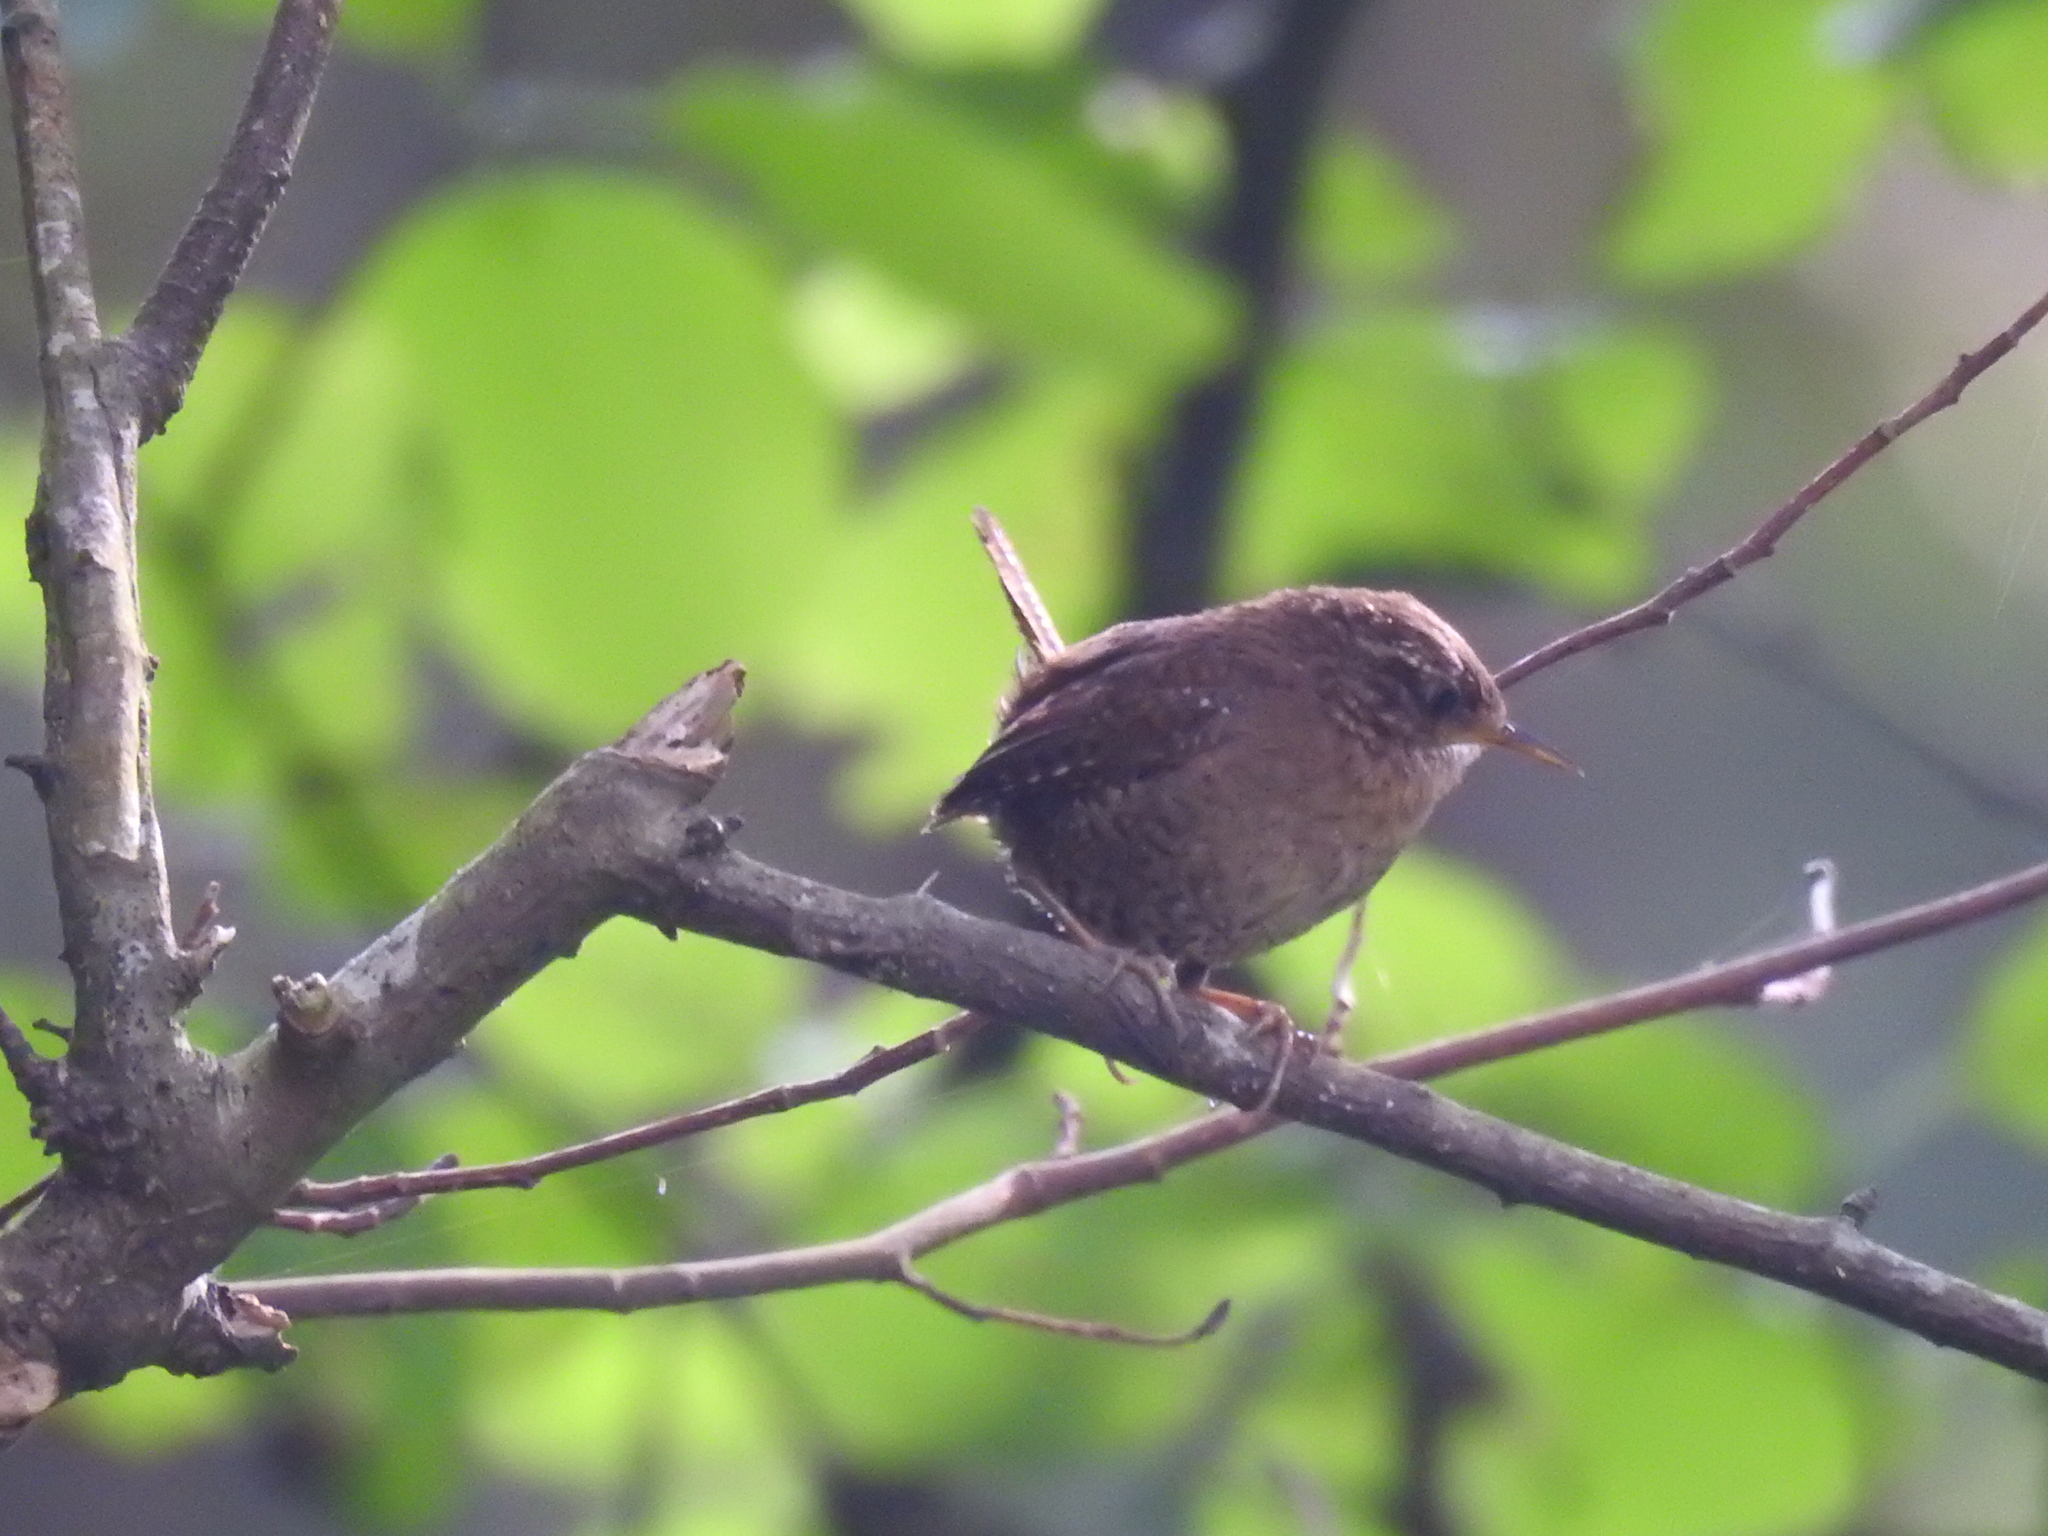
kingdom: Animalia
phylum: Chordata
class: Aves
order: Passeriformes
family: Troglodytidae
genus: Troglodytes
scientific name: Troglodytes pacificus
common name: Pacific wren
